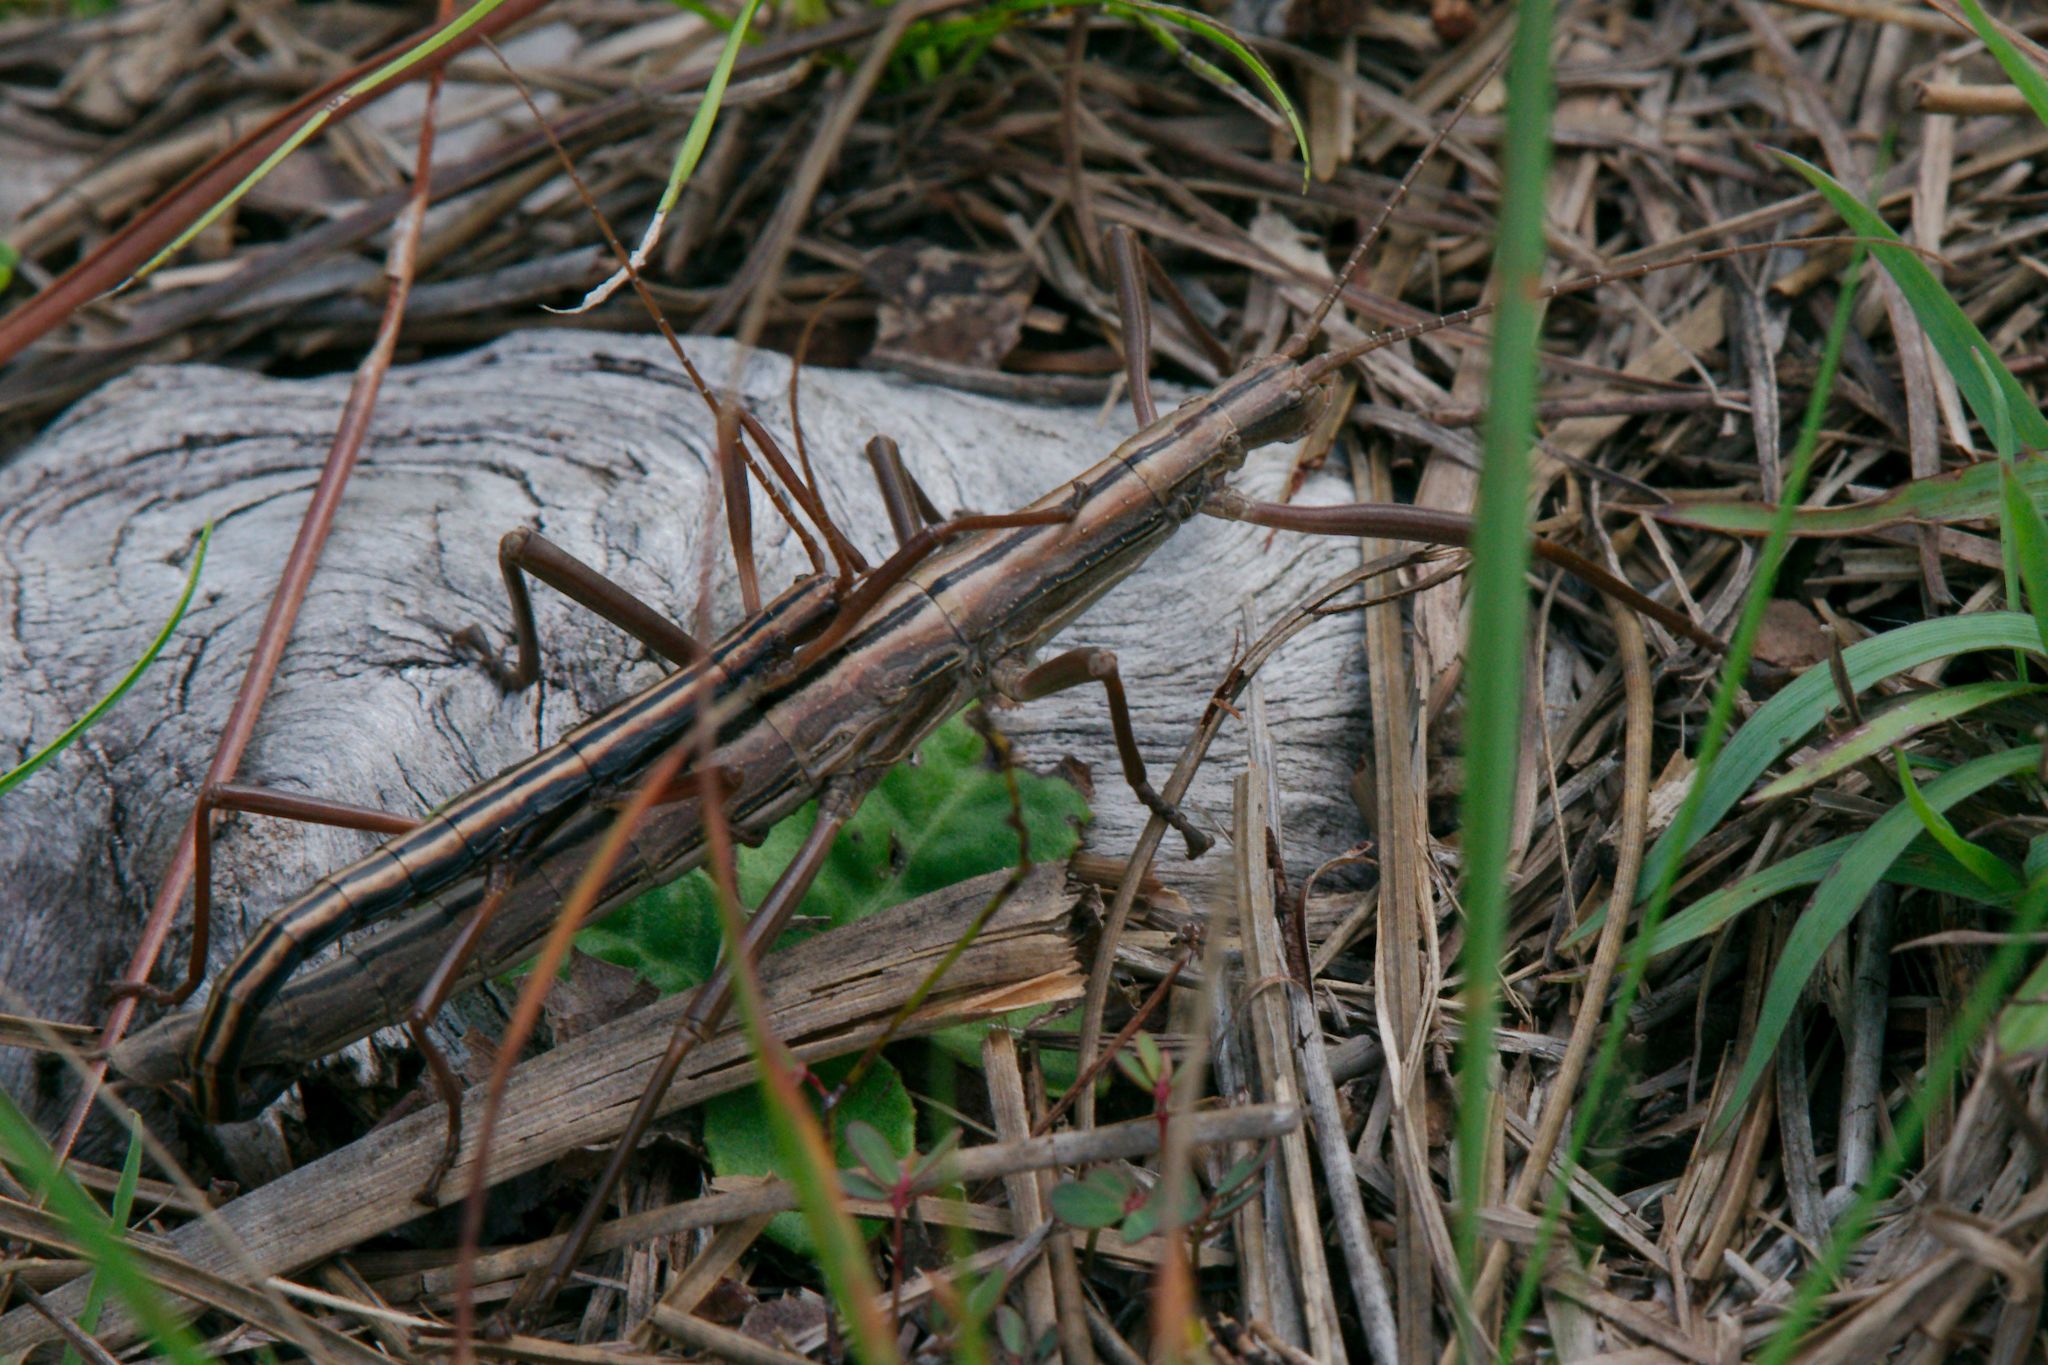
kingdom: Animalia
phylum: Arthropoda
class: Insecta
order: Phasmida
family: Pseudophasmatidae
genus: Anisomorpha
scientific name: Anisomorpha buprestoides
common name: Florida stick insect
